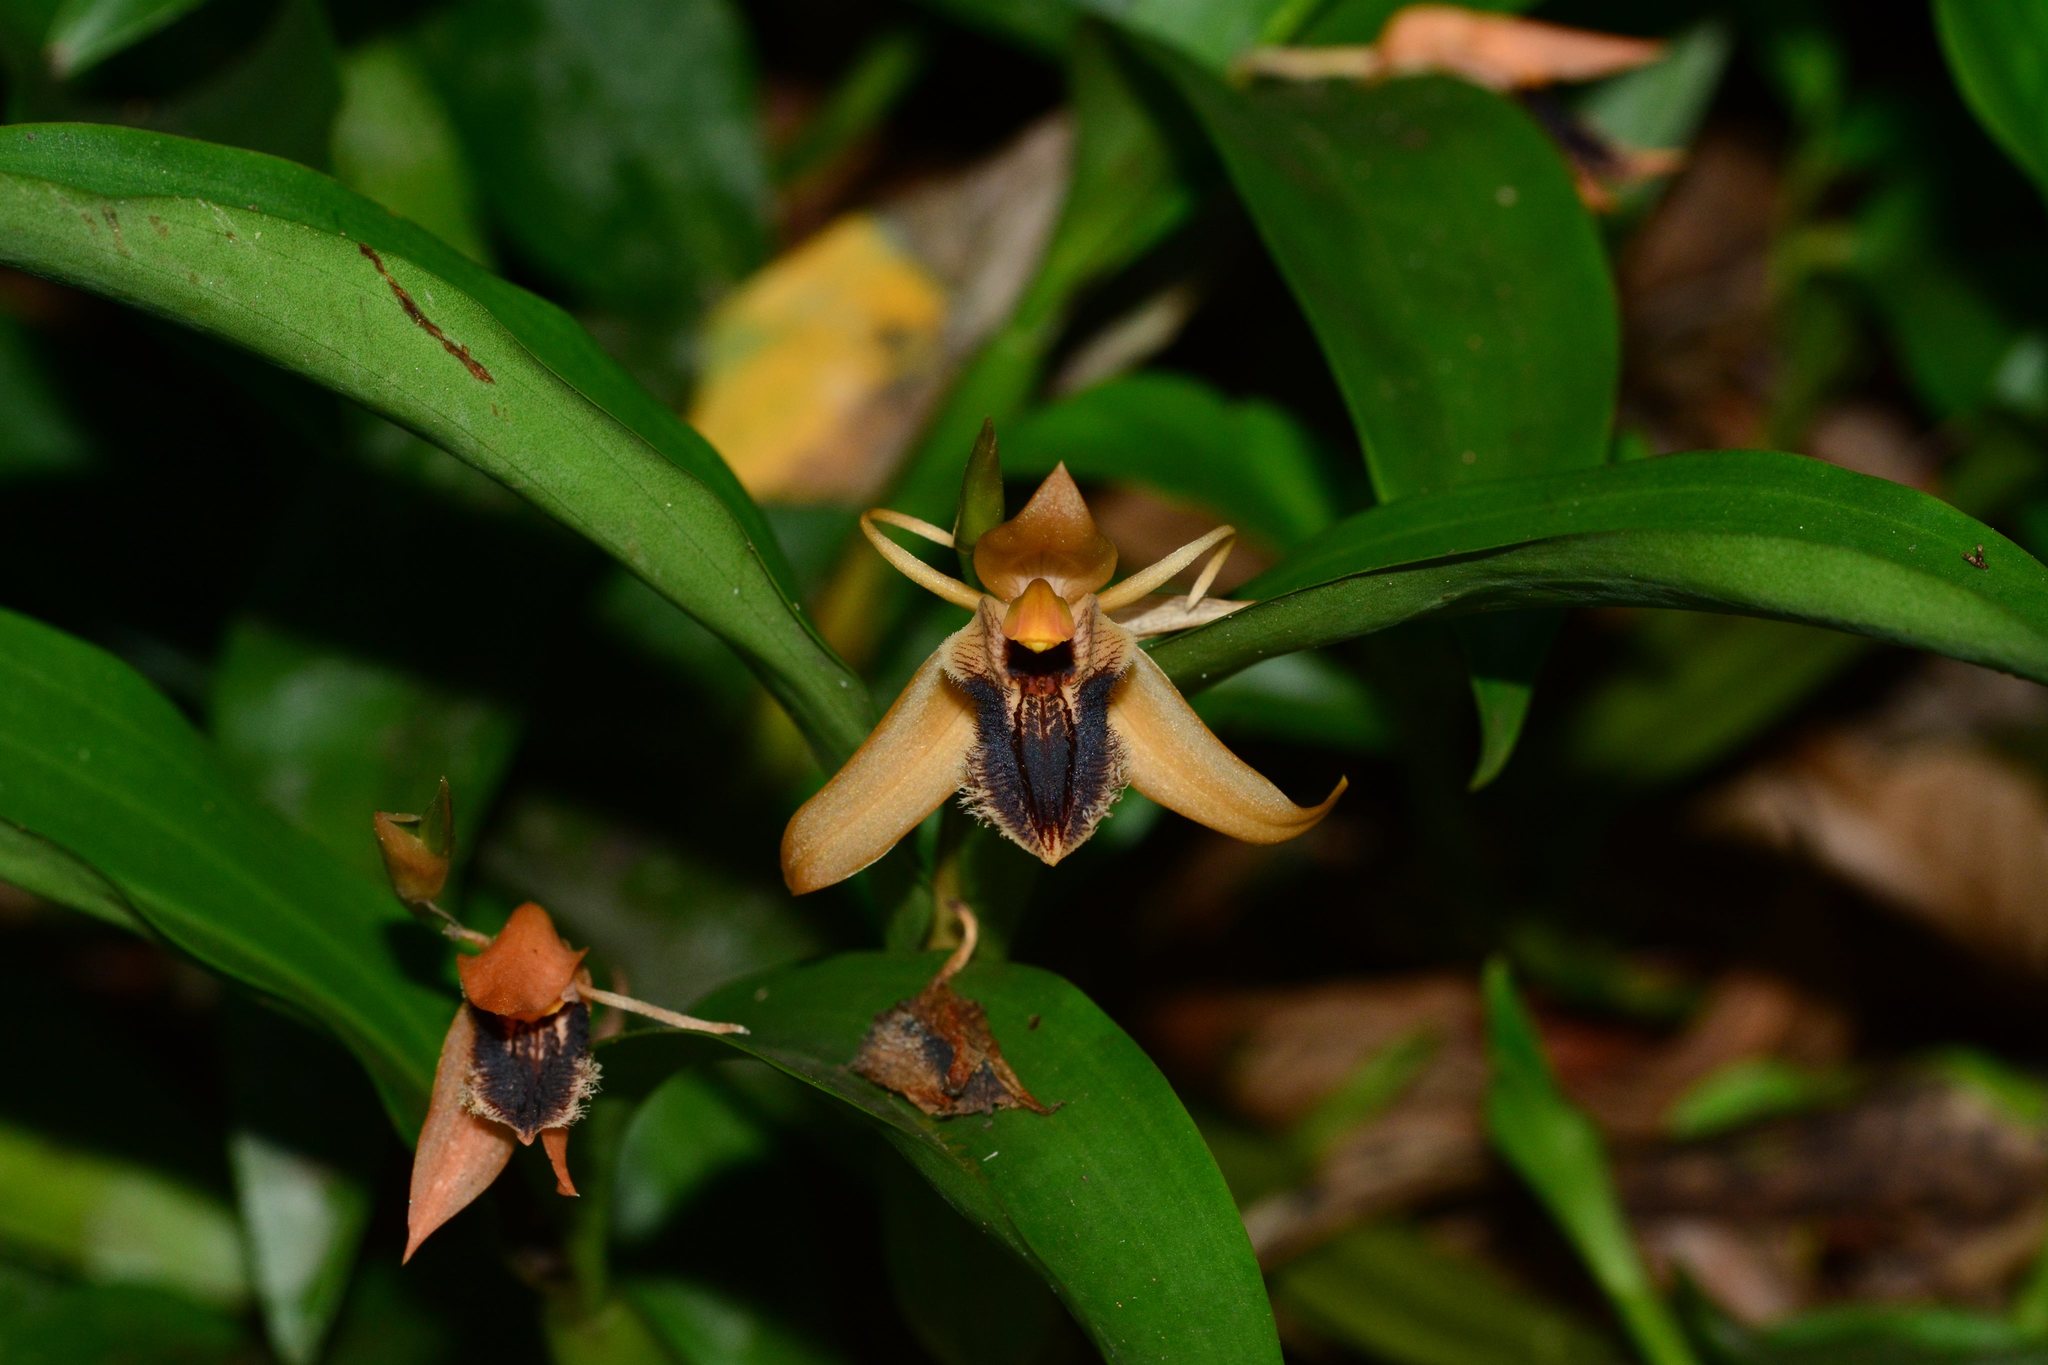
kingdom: Plantae
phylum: Tracheophyta
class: Liliopsida
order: Asparagales
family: Orchidaceae
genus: Coelogyne
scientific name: Coelogyne ovalis
